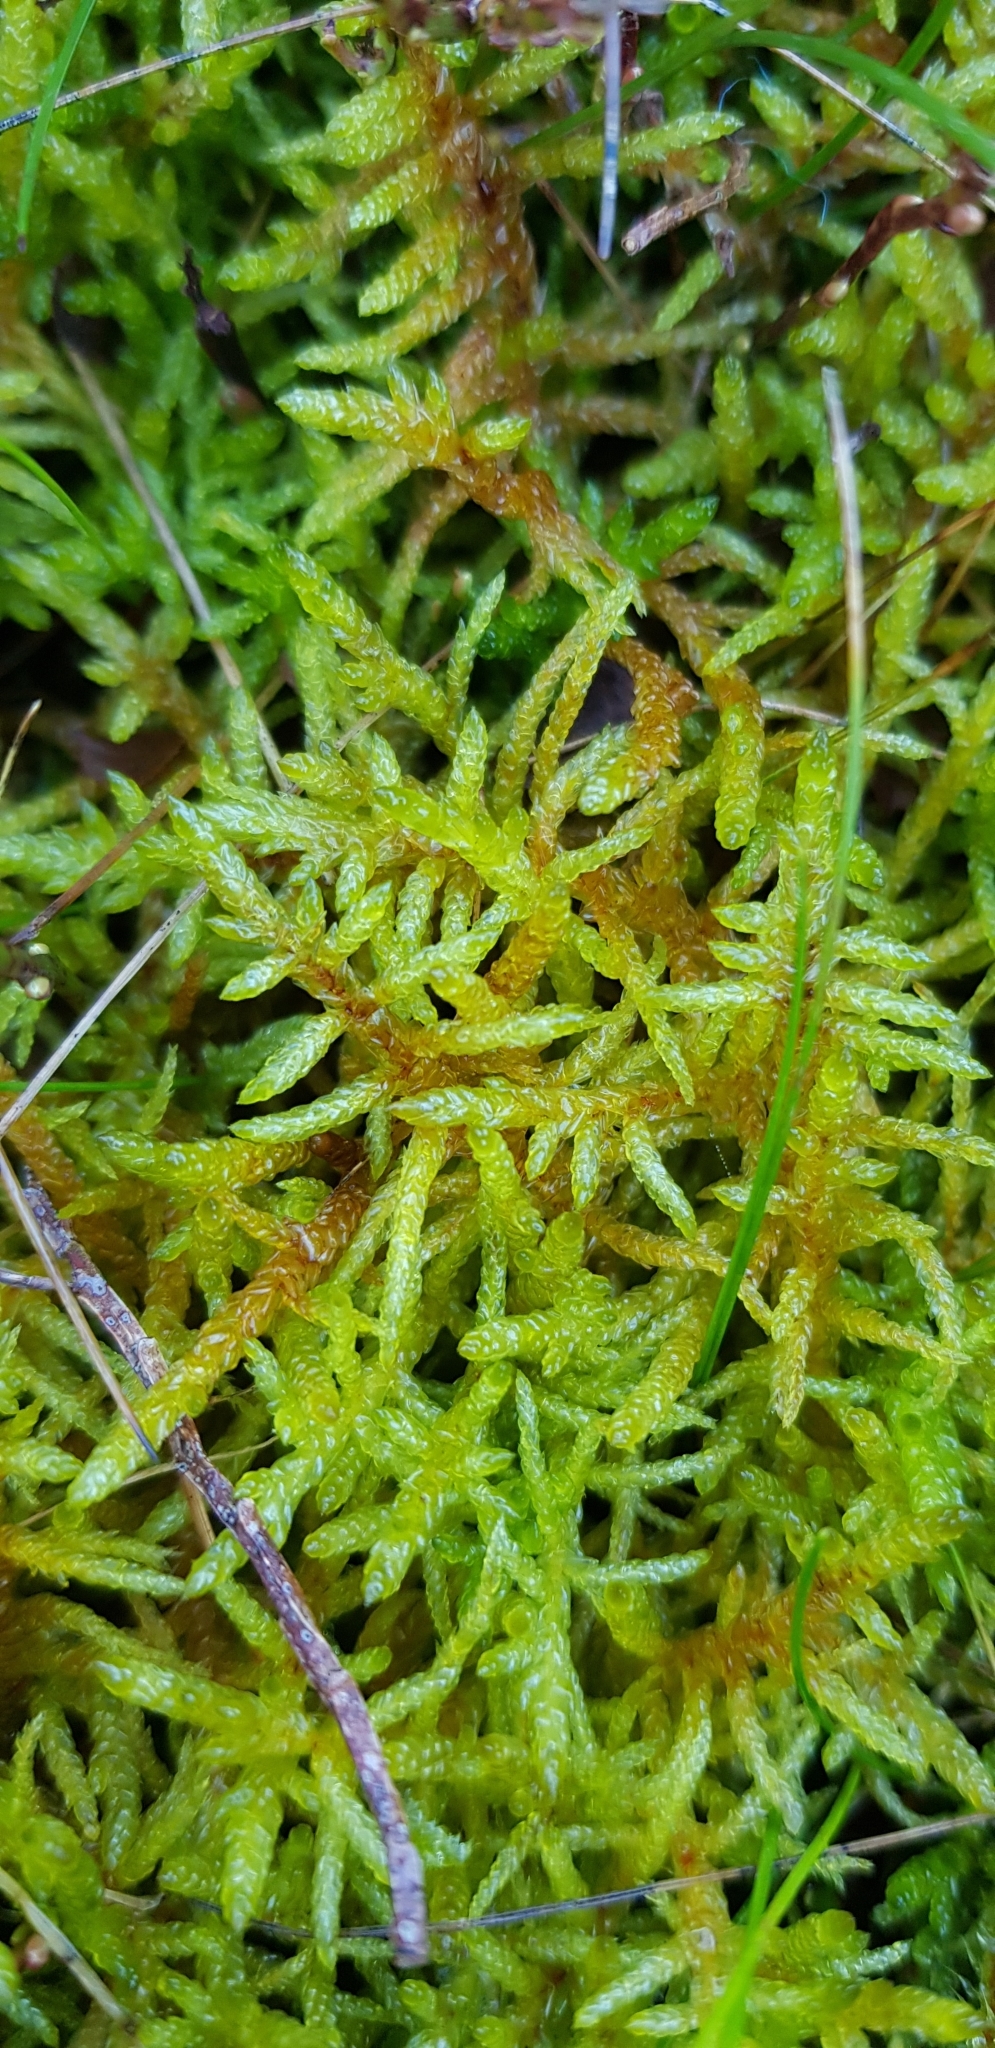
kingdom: Plantae
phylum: Bryophyta
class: Bryopsida
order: Hypnales
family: Brachytheciaceae
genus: Pseudoscleropodium
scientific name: Pseudoscleropodium purum
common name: Neat feather-moss
